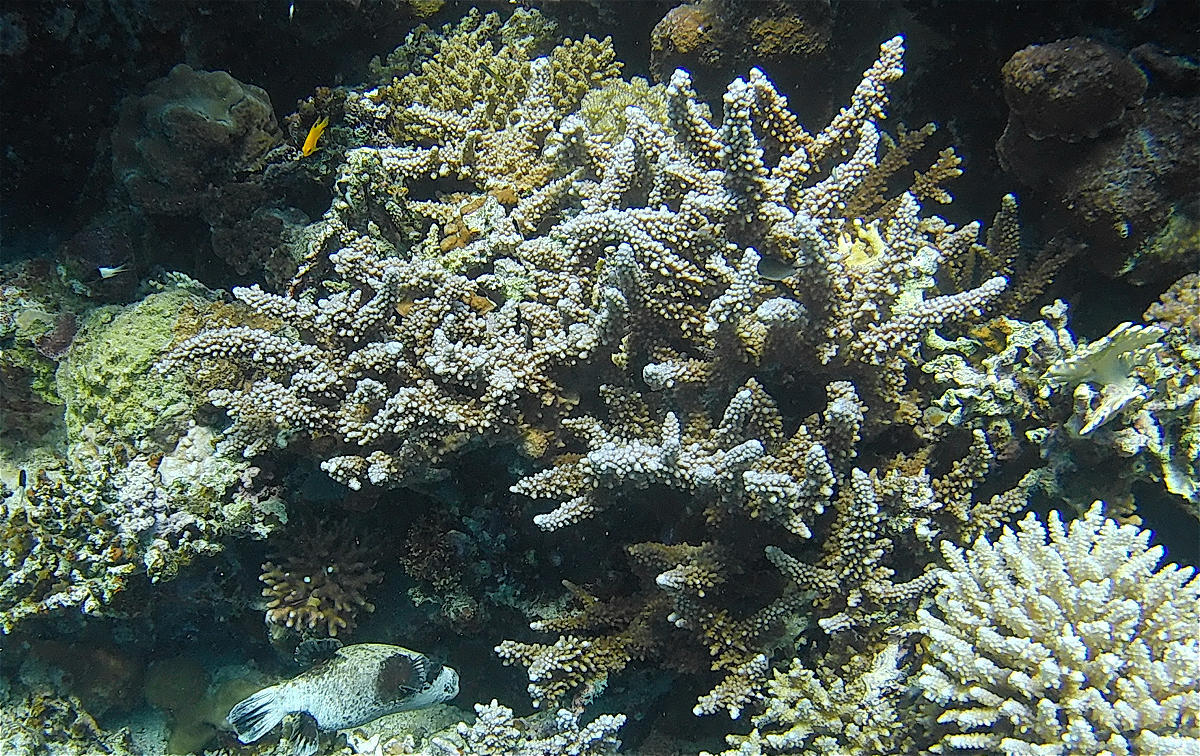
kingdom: Animalia
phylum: Cnidaria
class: Anthozoa
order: Scleractinia
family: Acroporidae
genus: Acropora
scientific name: Acropora hemprichii
